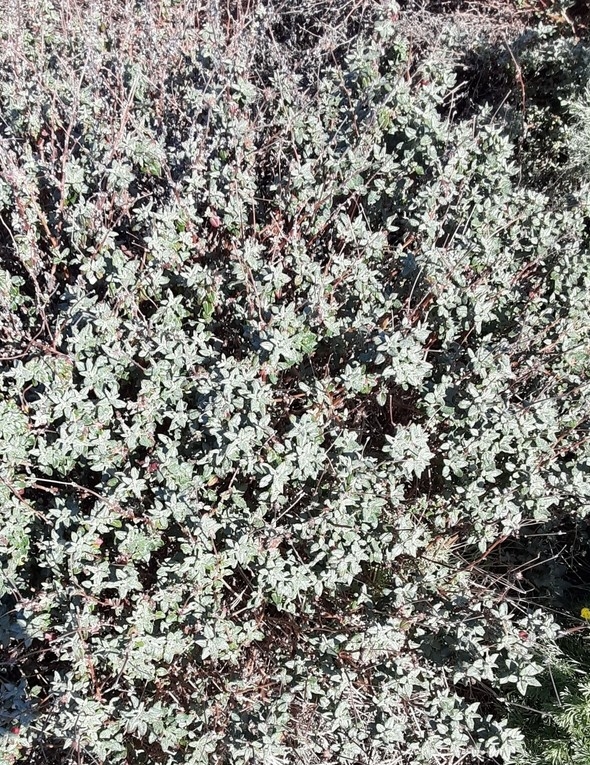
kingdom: Plantae
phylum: Tracheophyta
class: Magnoliopsida
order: Caryophyllales
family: Polygonaceae
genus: Eriogonum
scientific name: Eriogonum parvifolium
